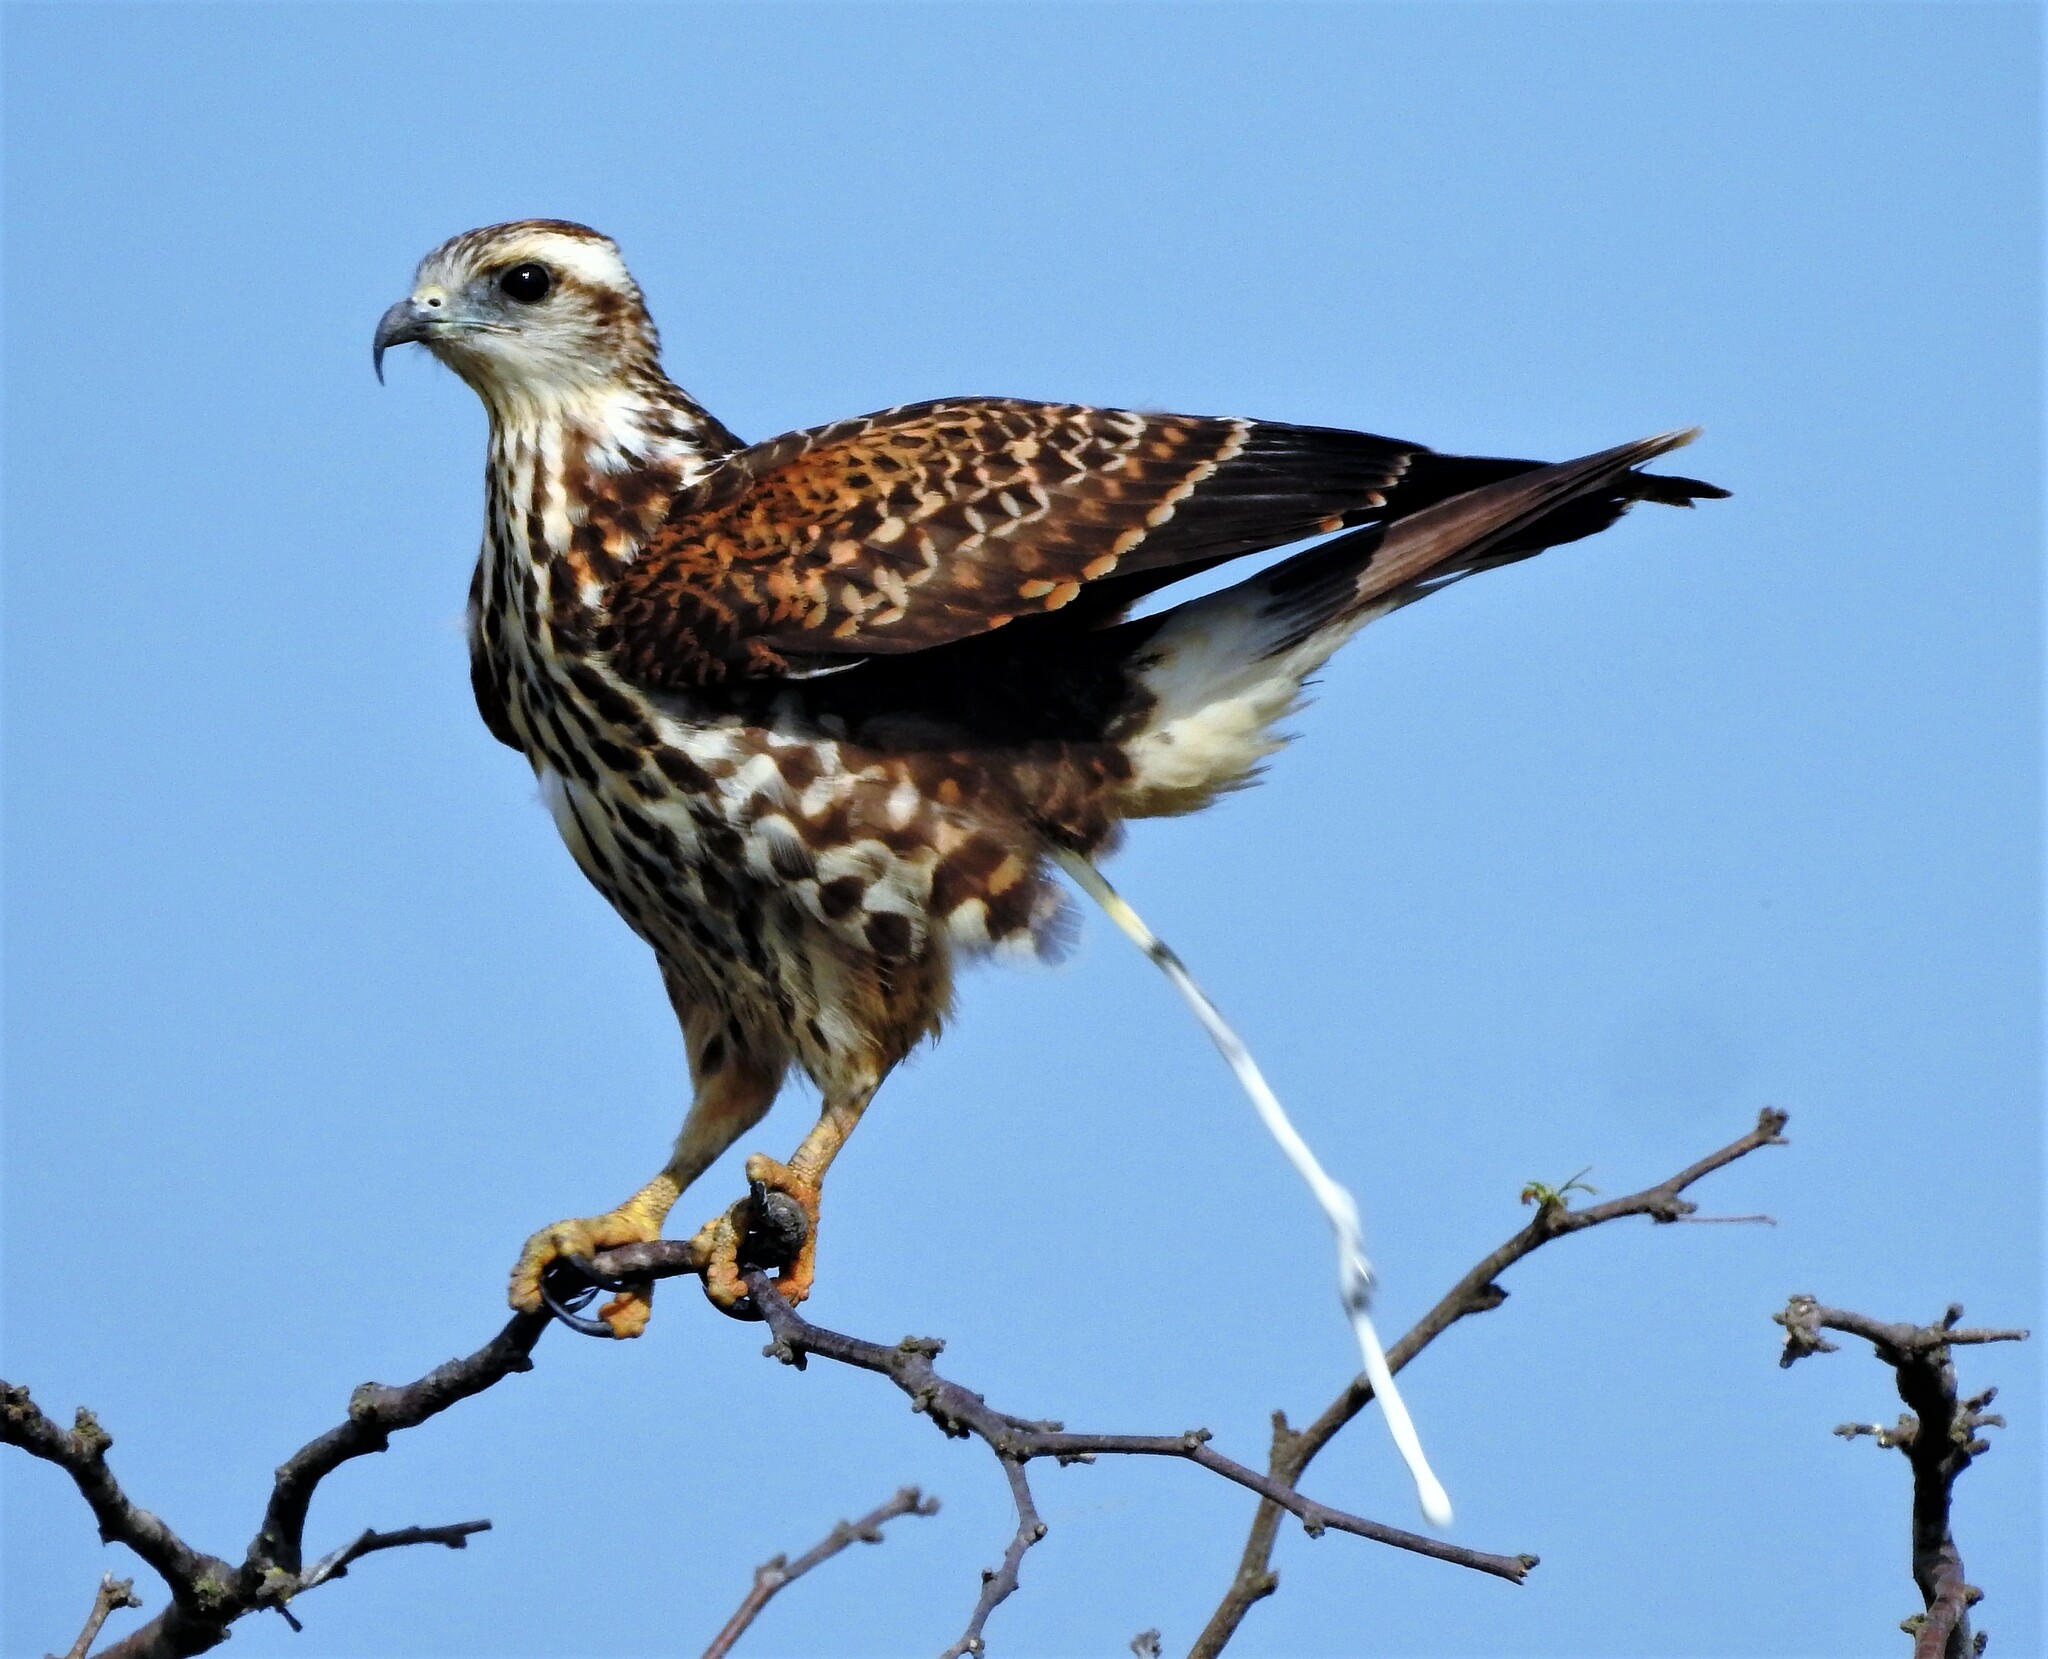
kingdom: Animalia
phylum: Chordata
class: Aves
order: Accipitriformes
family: Accipitridae
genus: Rostrhamus
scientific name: Rostrhamus sociabilis
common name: Snail kite
